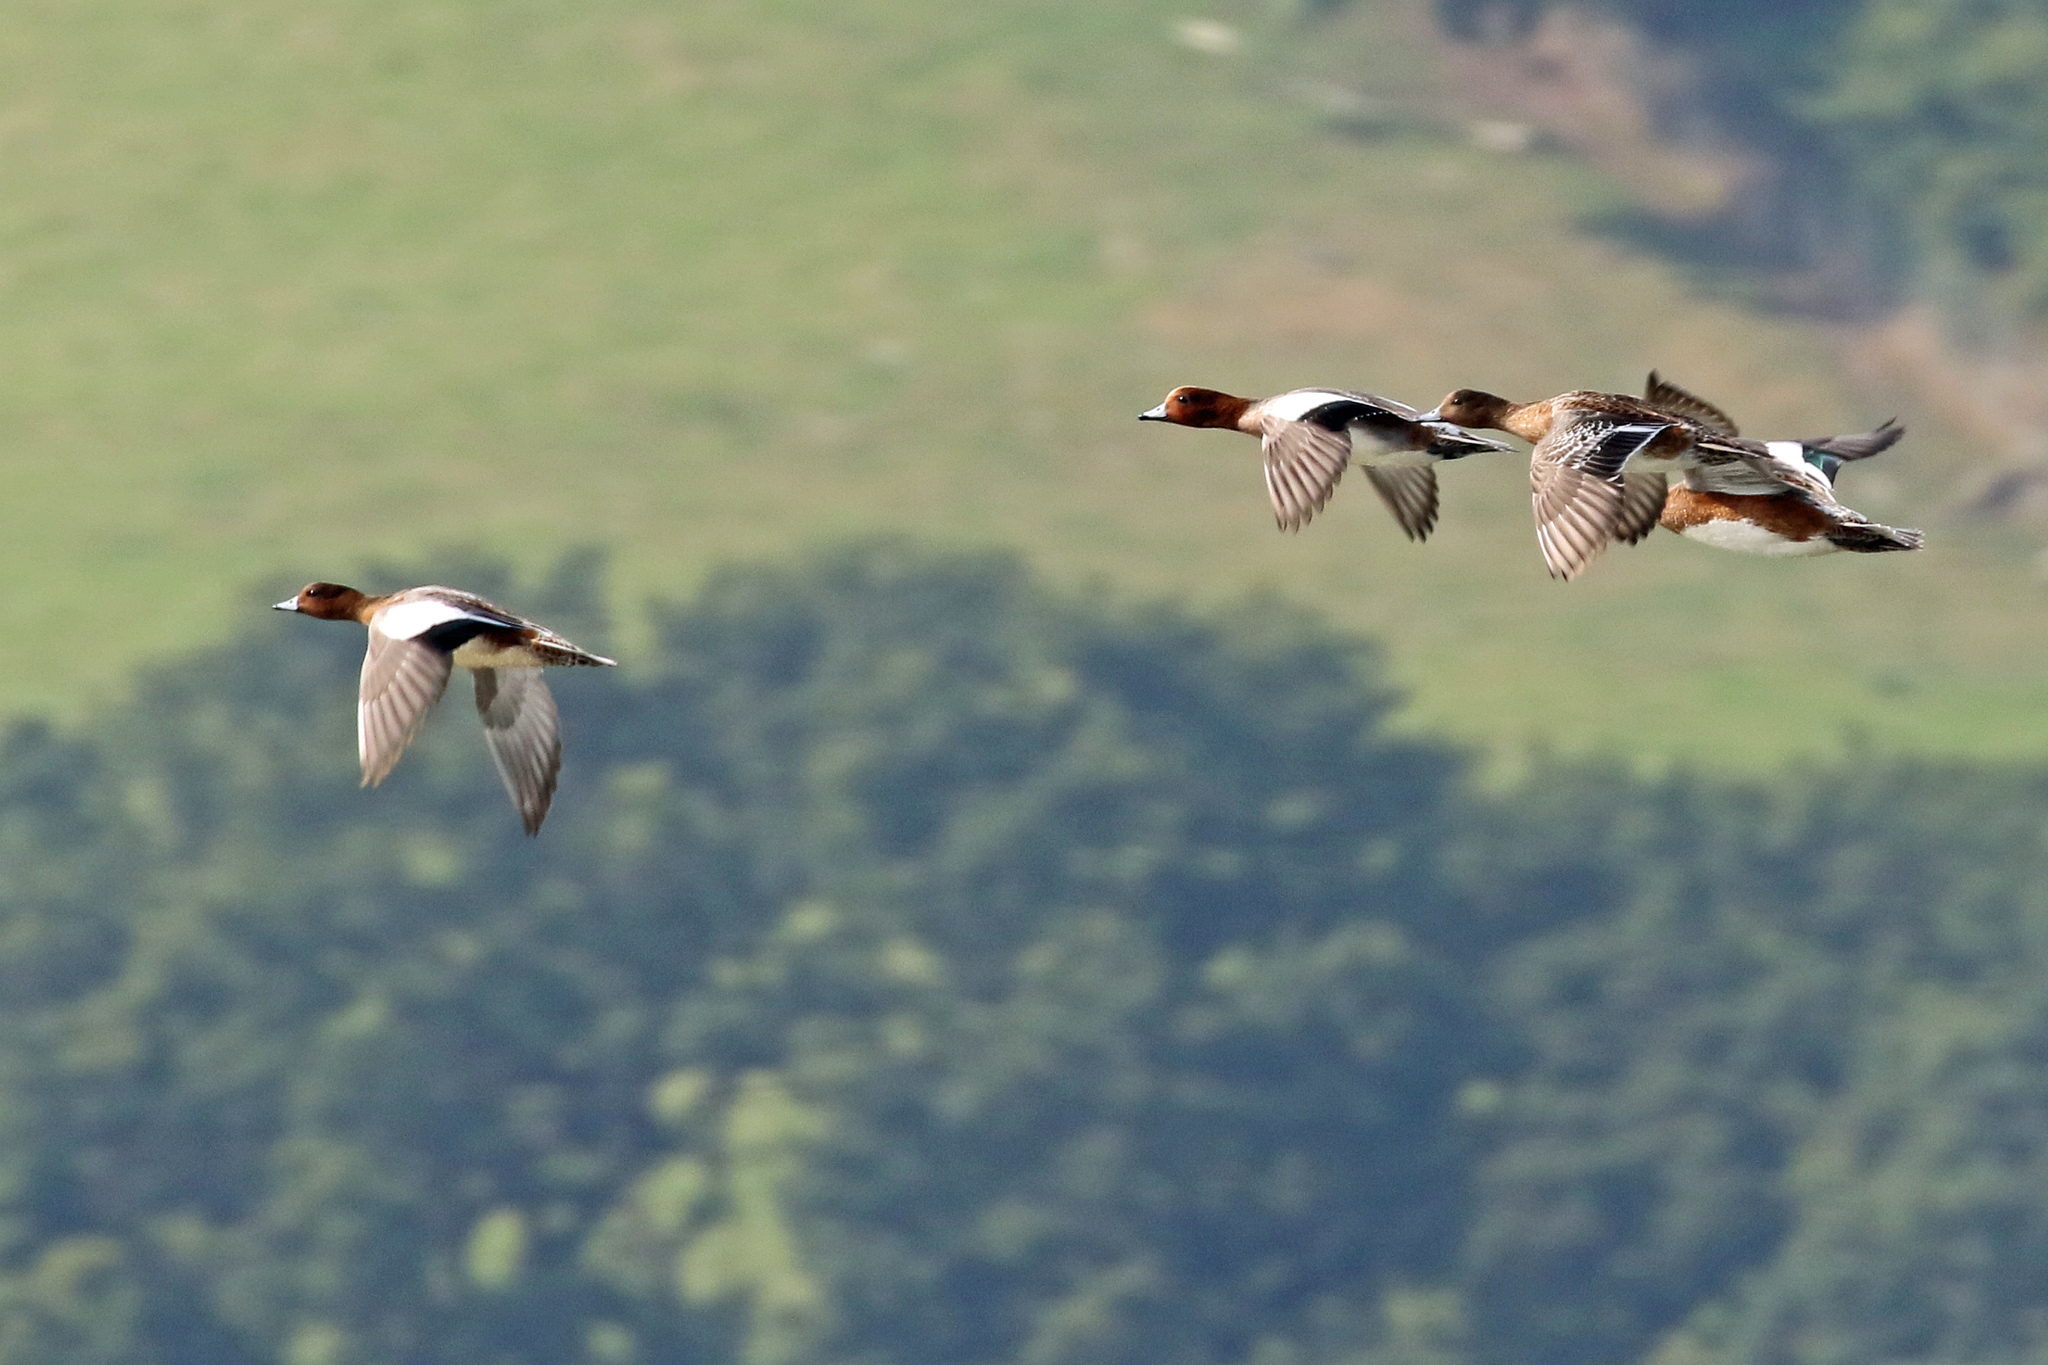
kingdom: Animalia
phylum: Chordata
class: Aves
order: Anseriformes
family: Anatidae
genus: Mareca
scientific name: Mareca penelope
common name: Eurasian wigeon
